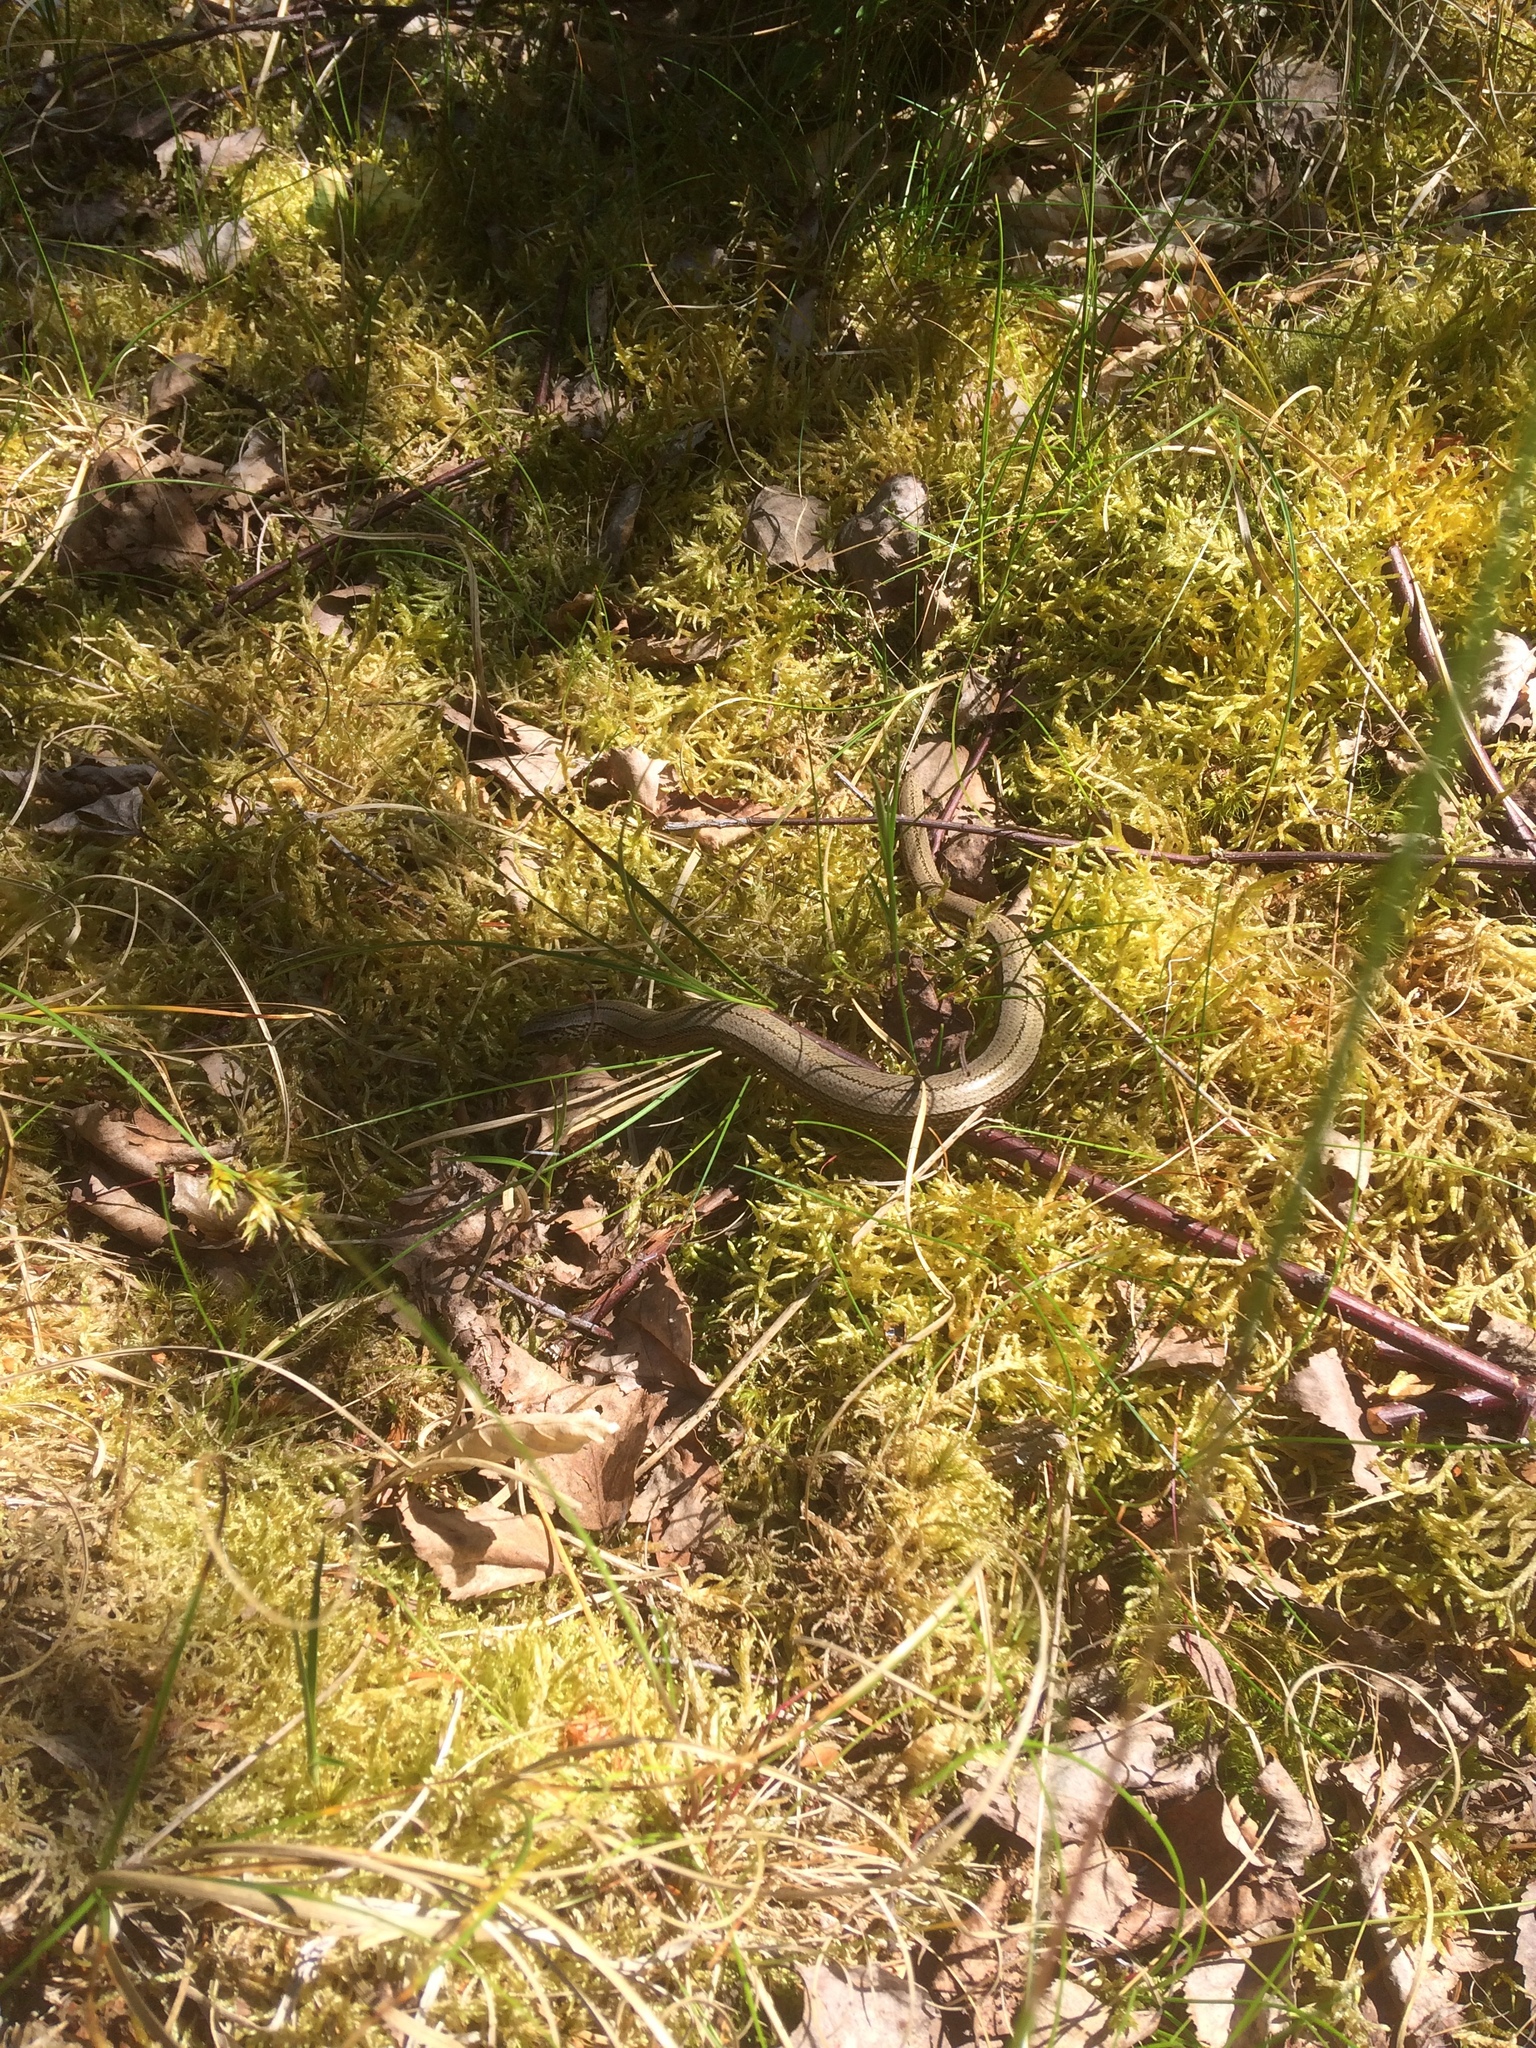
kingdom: Animalia
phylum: Chordata
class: Squamata
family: Anguidae
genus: Anguis
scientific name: Anguis fragilis
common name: Slow worm
